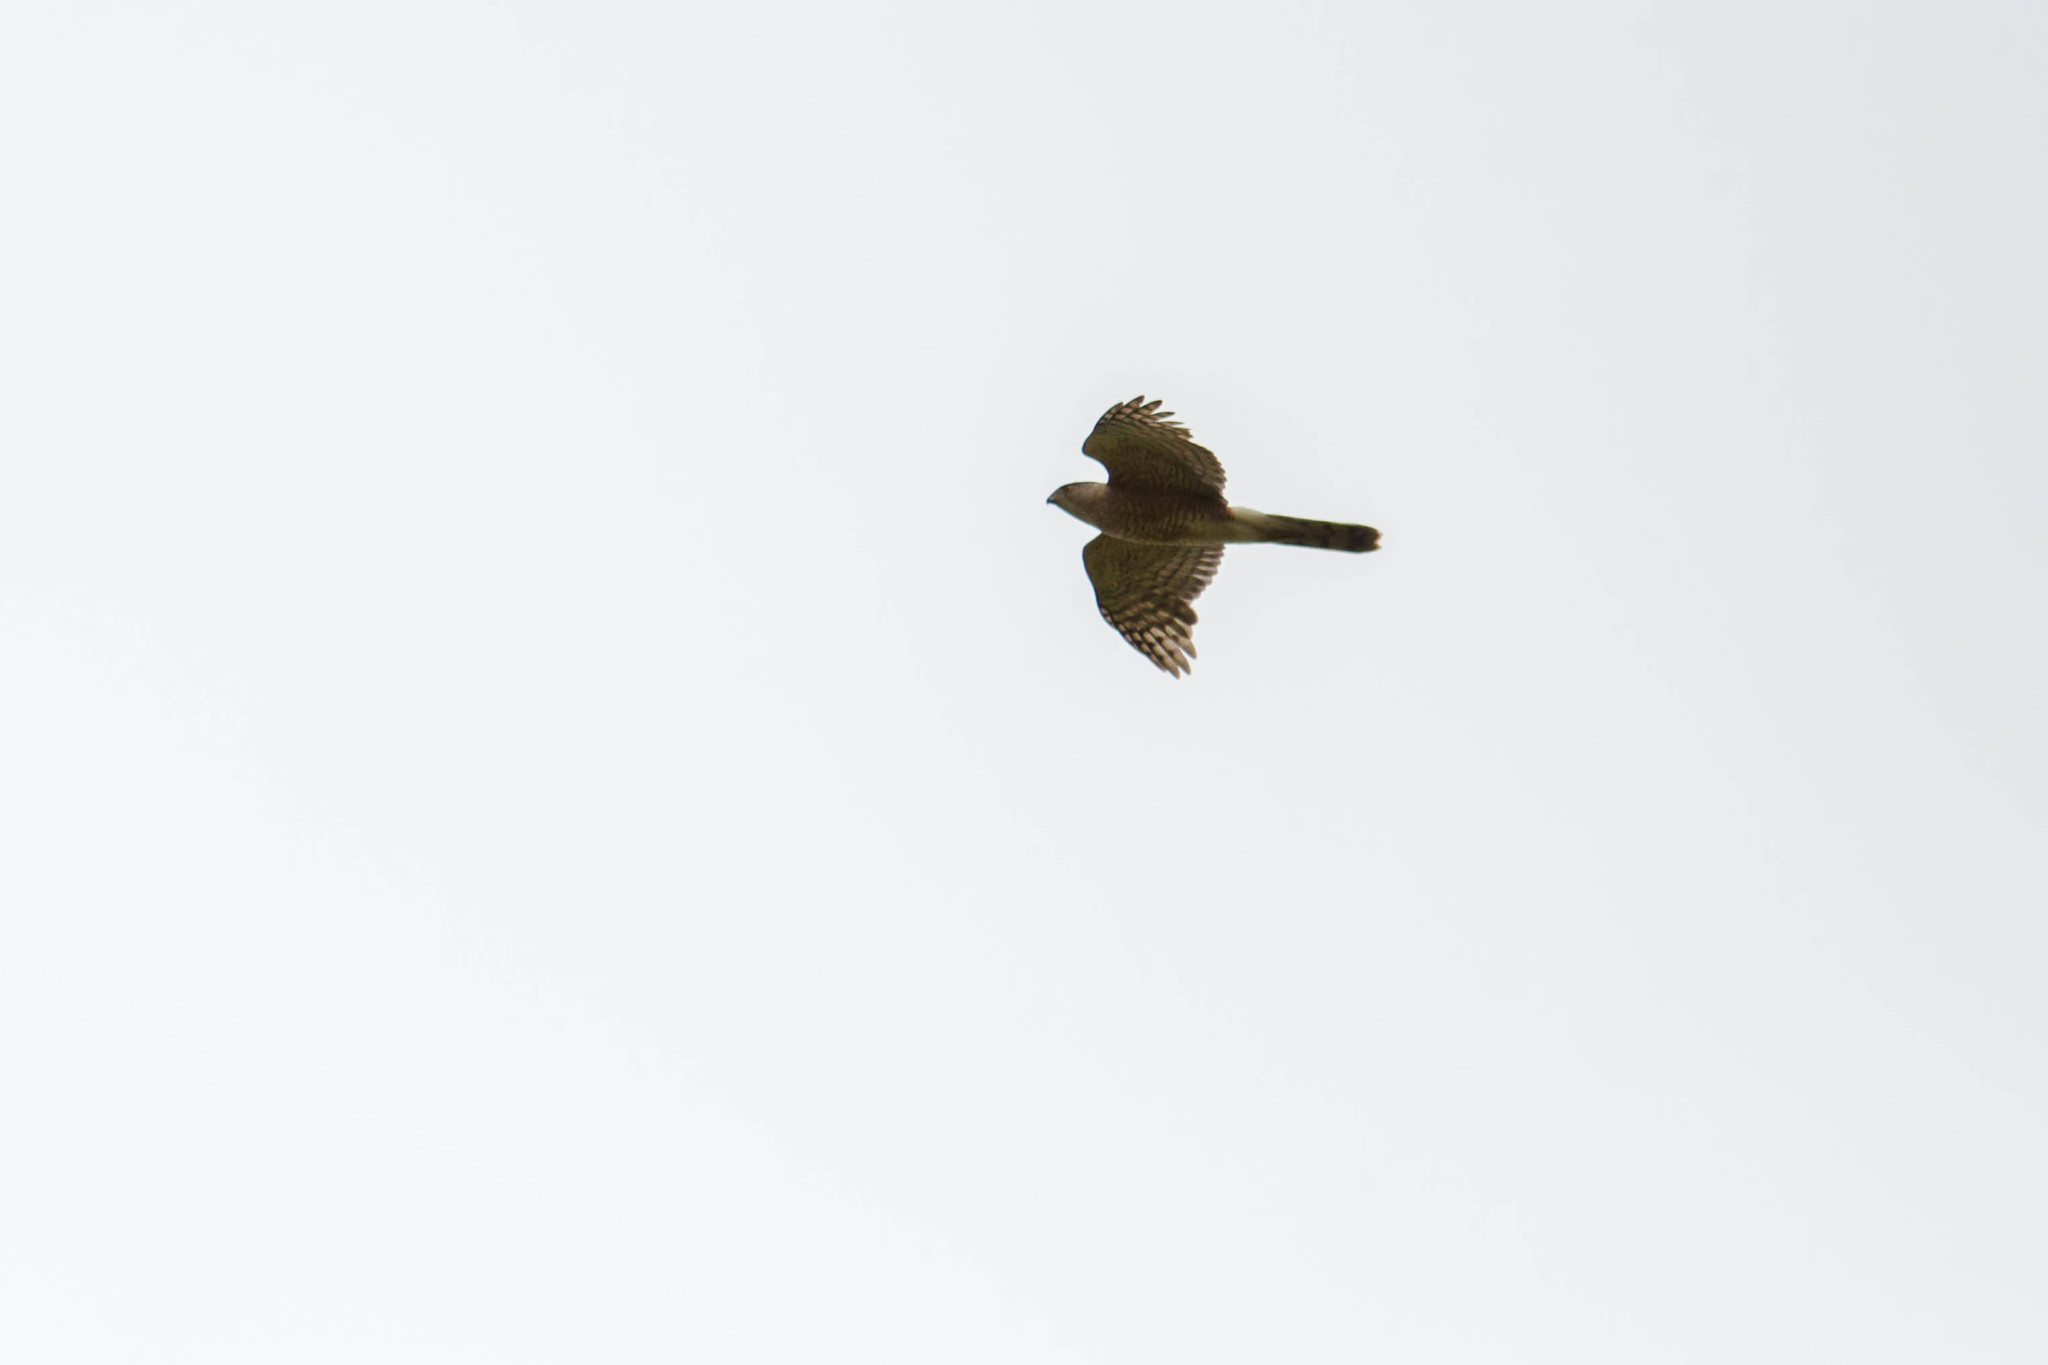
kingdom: Animalia
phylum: Chordata
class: Aves
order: Accipitriformes
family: Accipitridae
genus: Accipiter
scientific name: Accipiter cooperii
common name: Cooper's hawk
